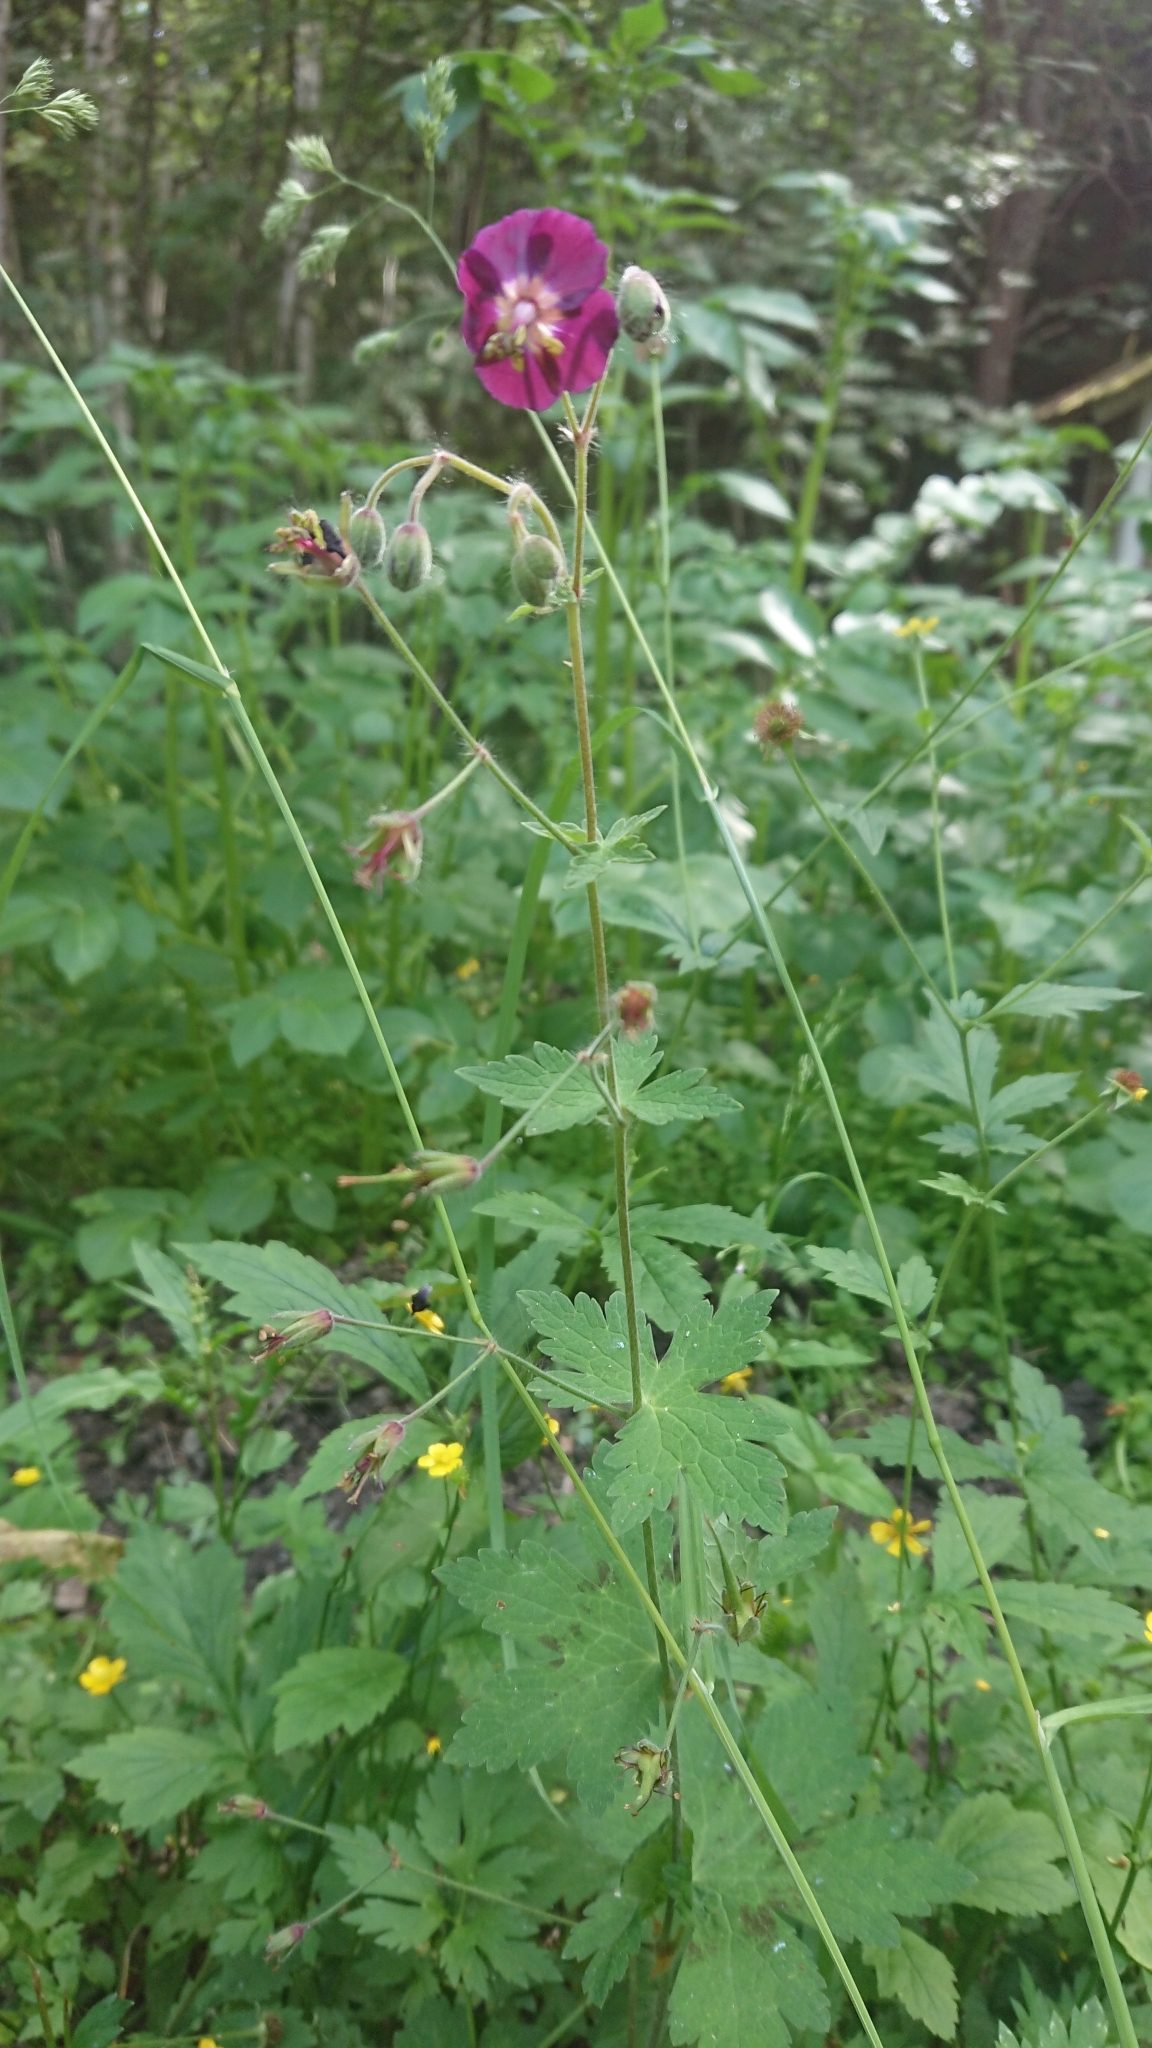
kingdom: Plantae
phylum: Tracheophyta
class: Magnoliopsida
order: Geraniales
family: Geraniaceae
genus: Geranium
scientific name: Geranium phaeum
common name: Dusky crane's-bill
